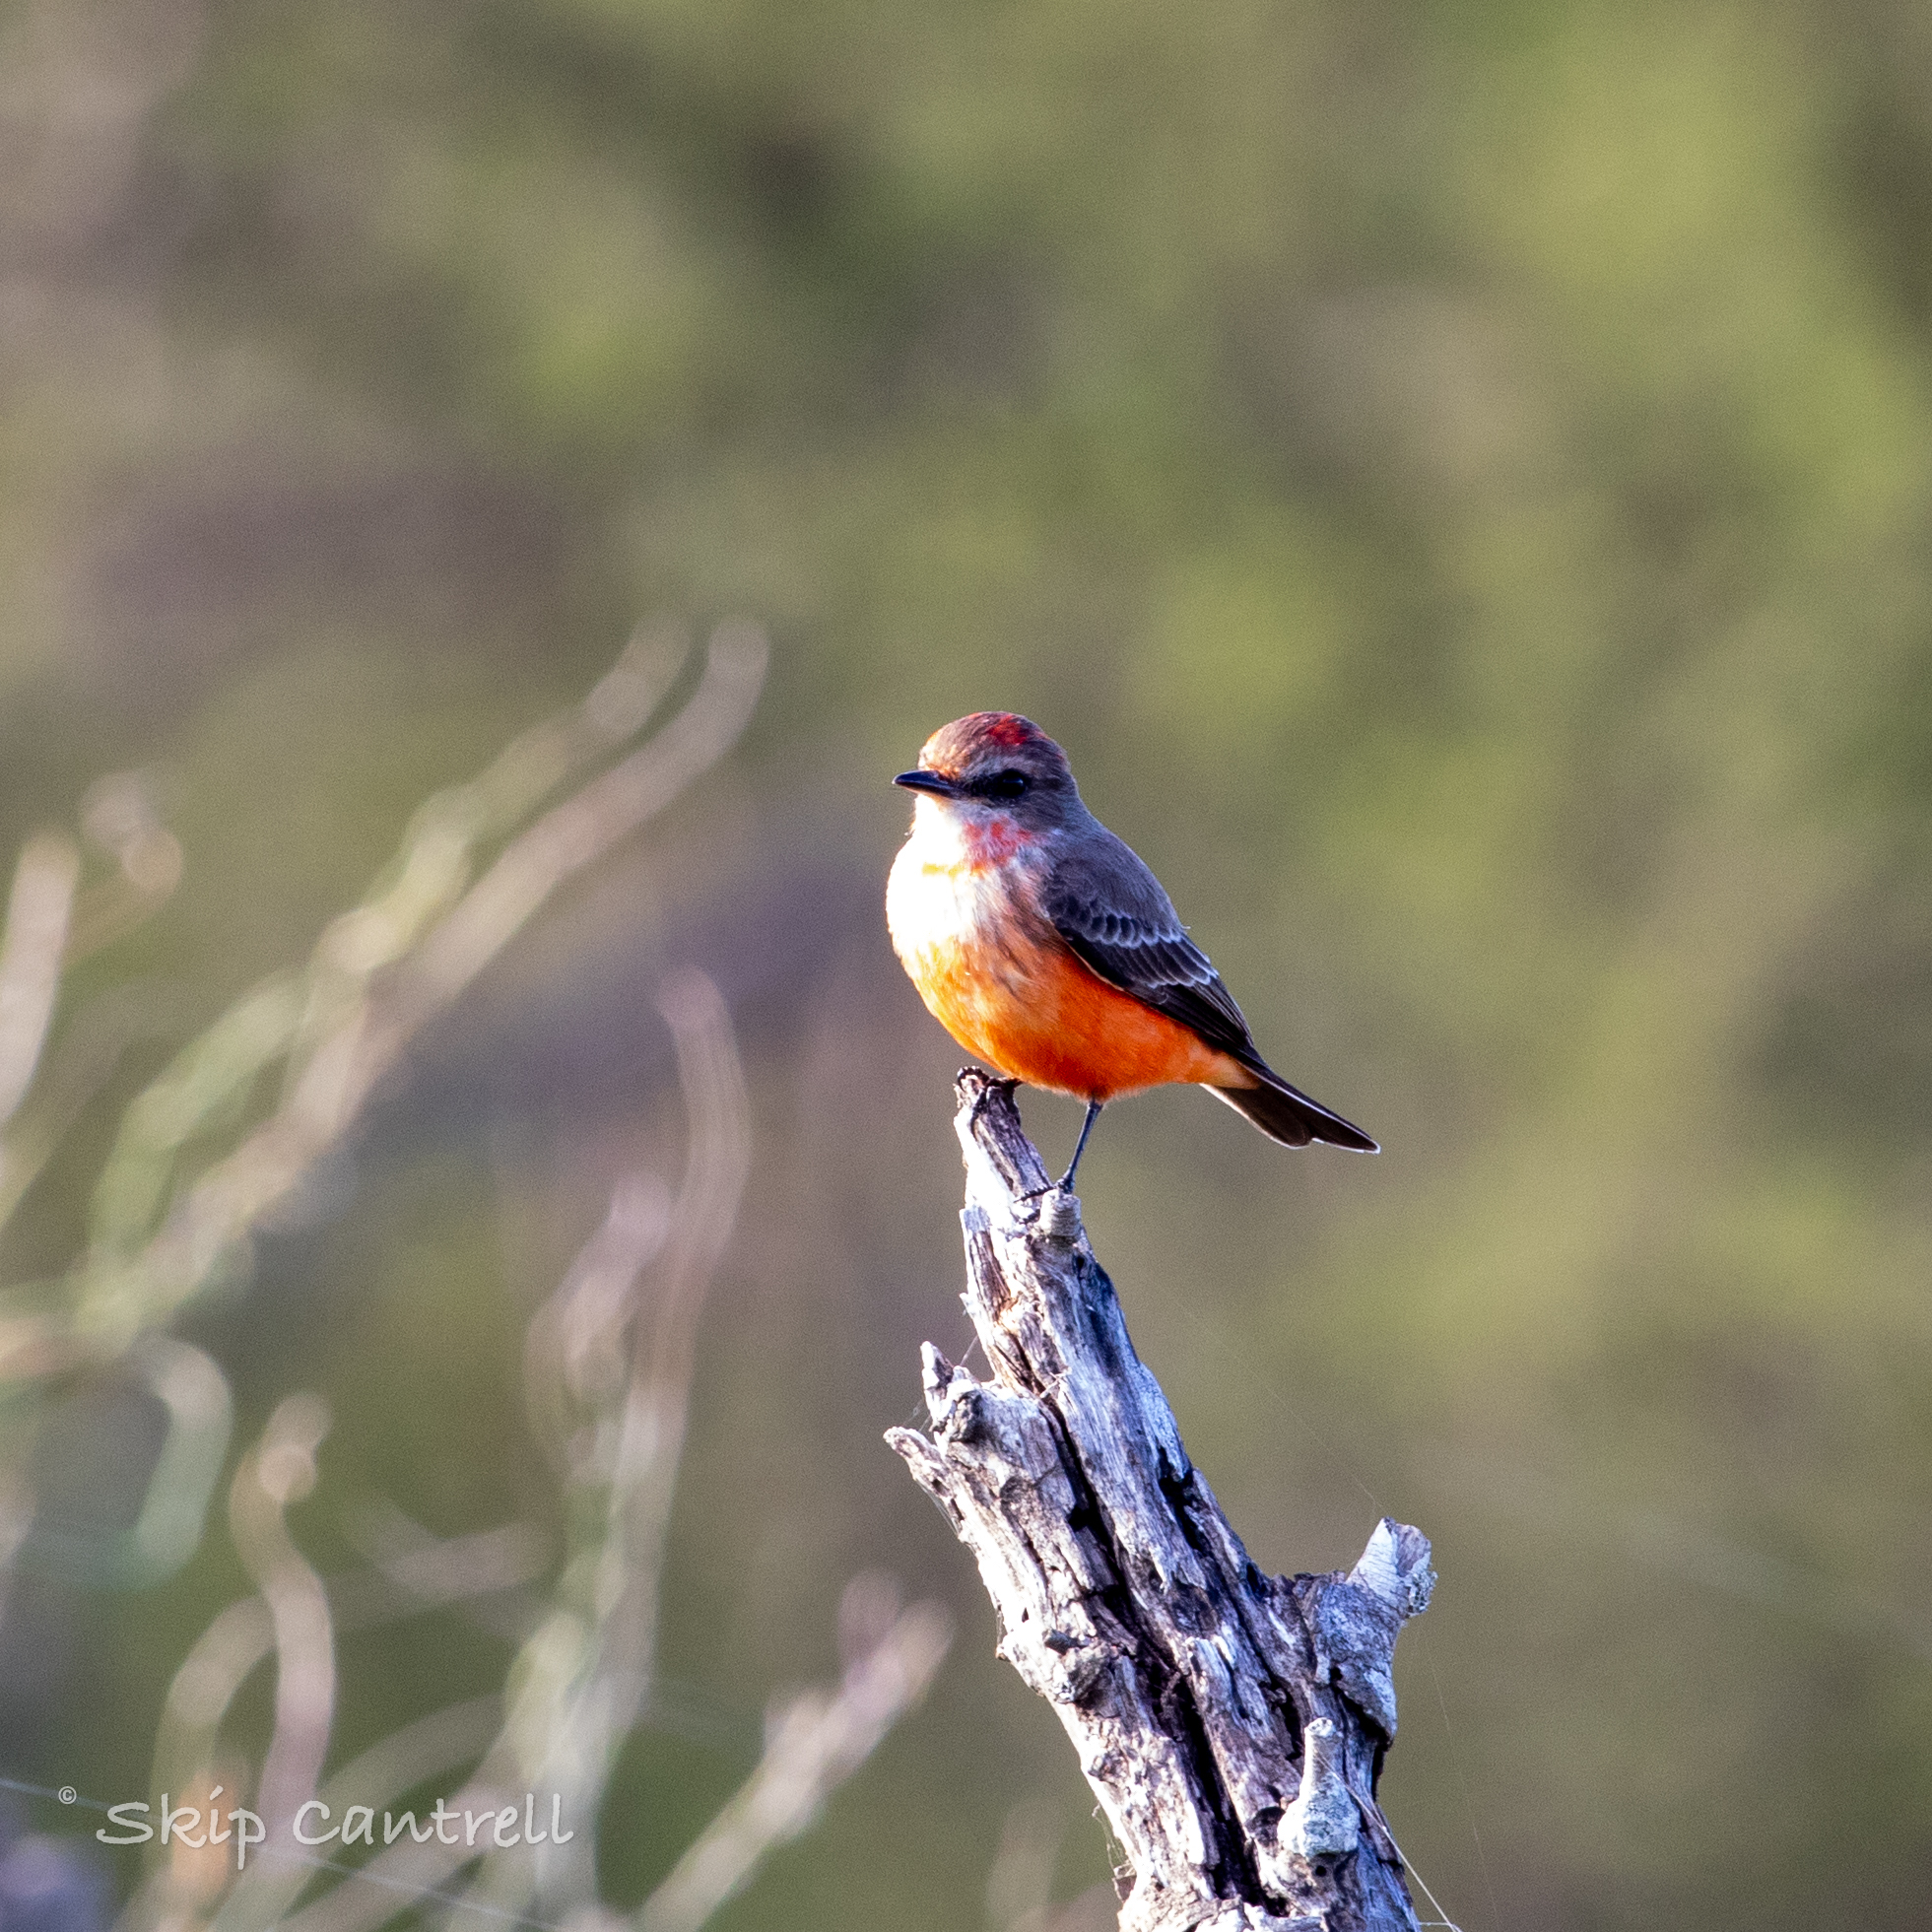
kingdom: Animalia
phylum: Chordata
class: Aves
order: Passeriformes
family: Tyrannidae
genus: Pyrocephalus
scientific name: Pyrocephalus rubinus
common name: Vermilion flycatcher
